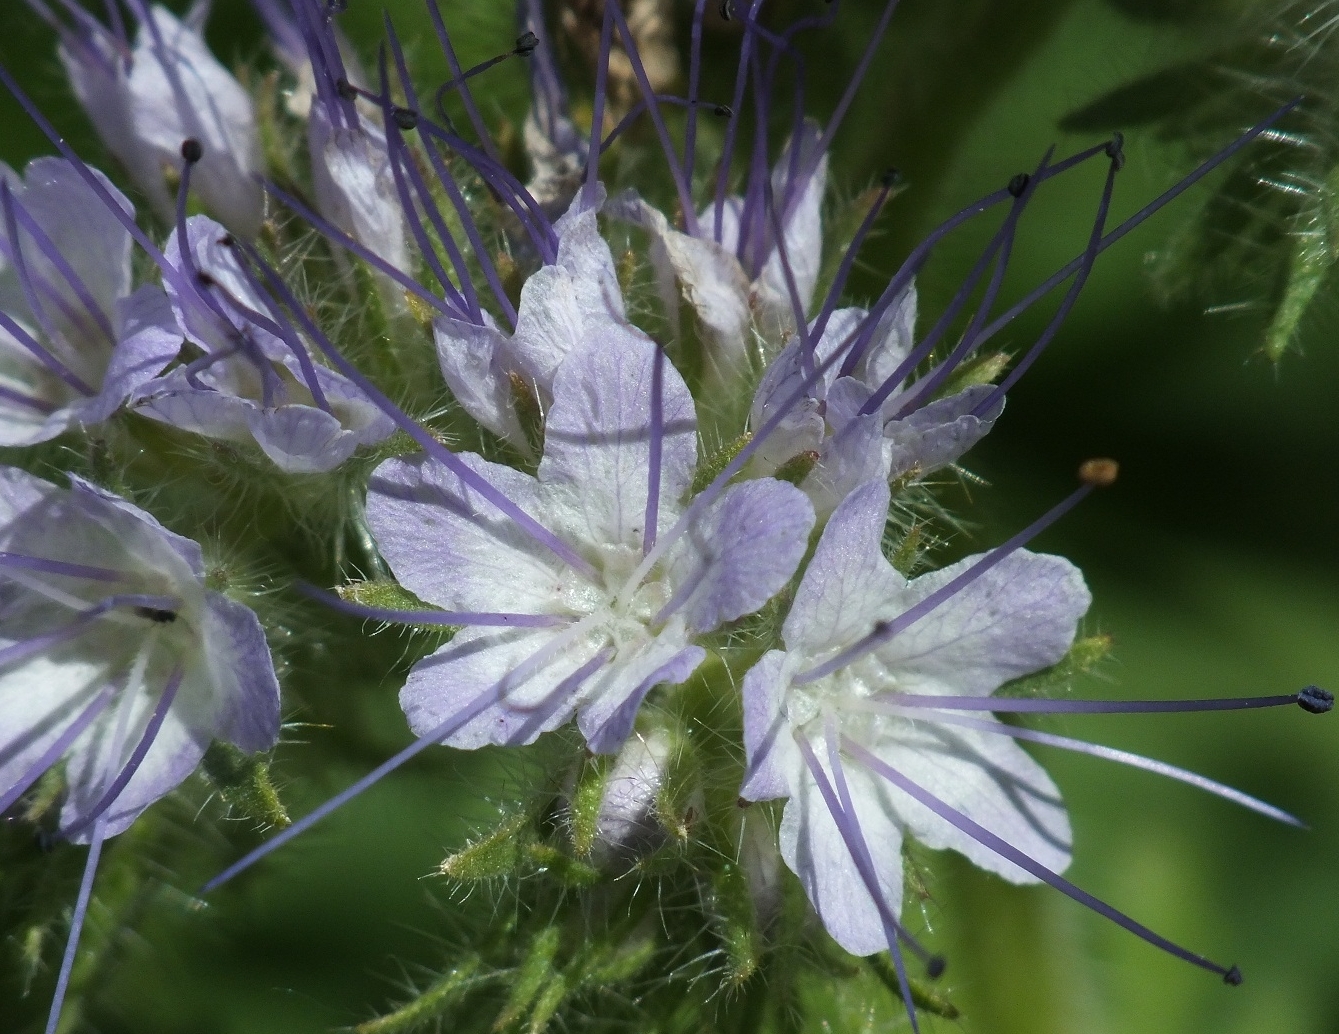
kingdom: Plantae
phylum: Tracheophyta
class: Magnoliopsida
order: Boraginales
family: Hydrophyllaceae
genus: Phacelia
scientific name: Phacelia tanacetifolia
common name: Phacelia
